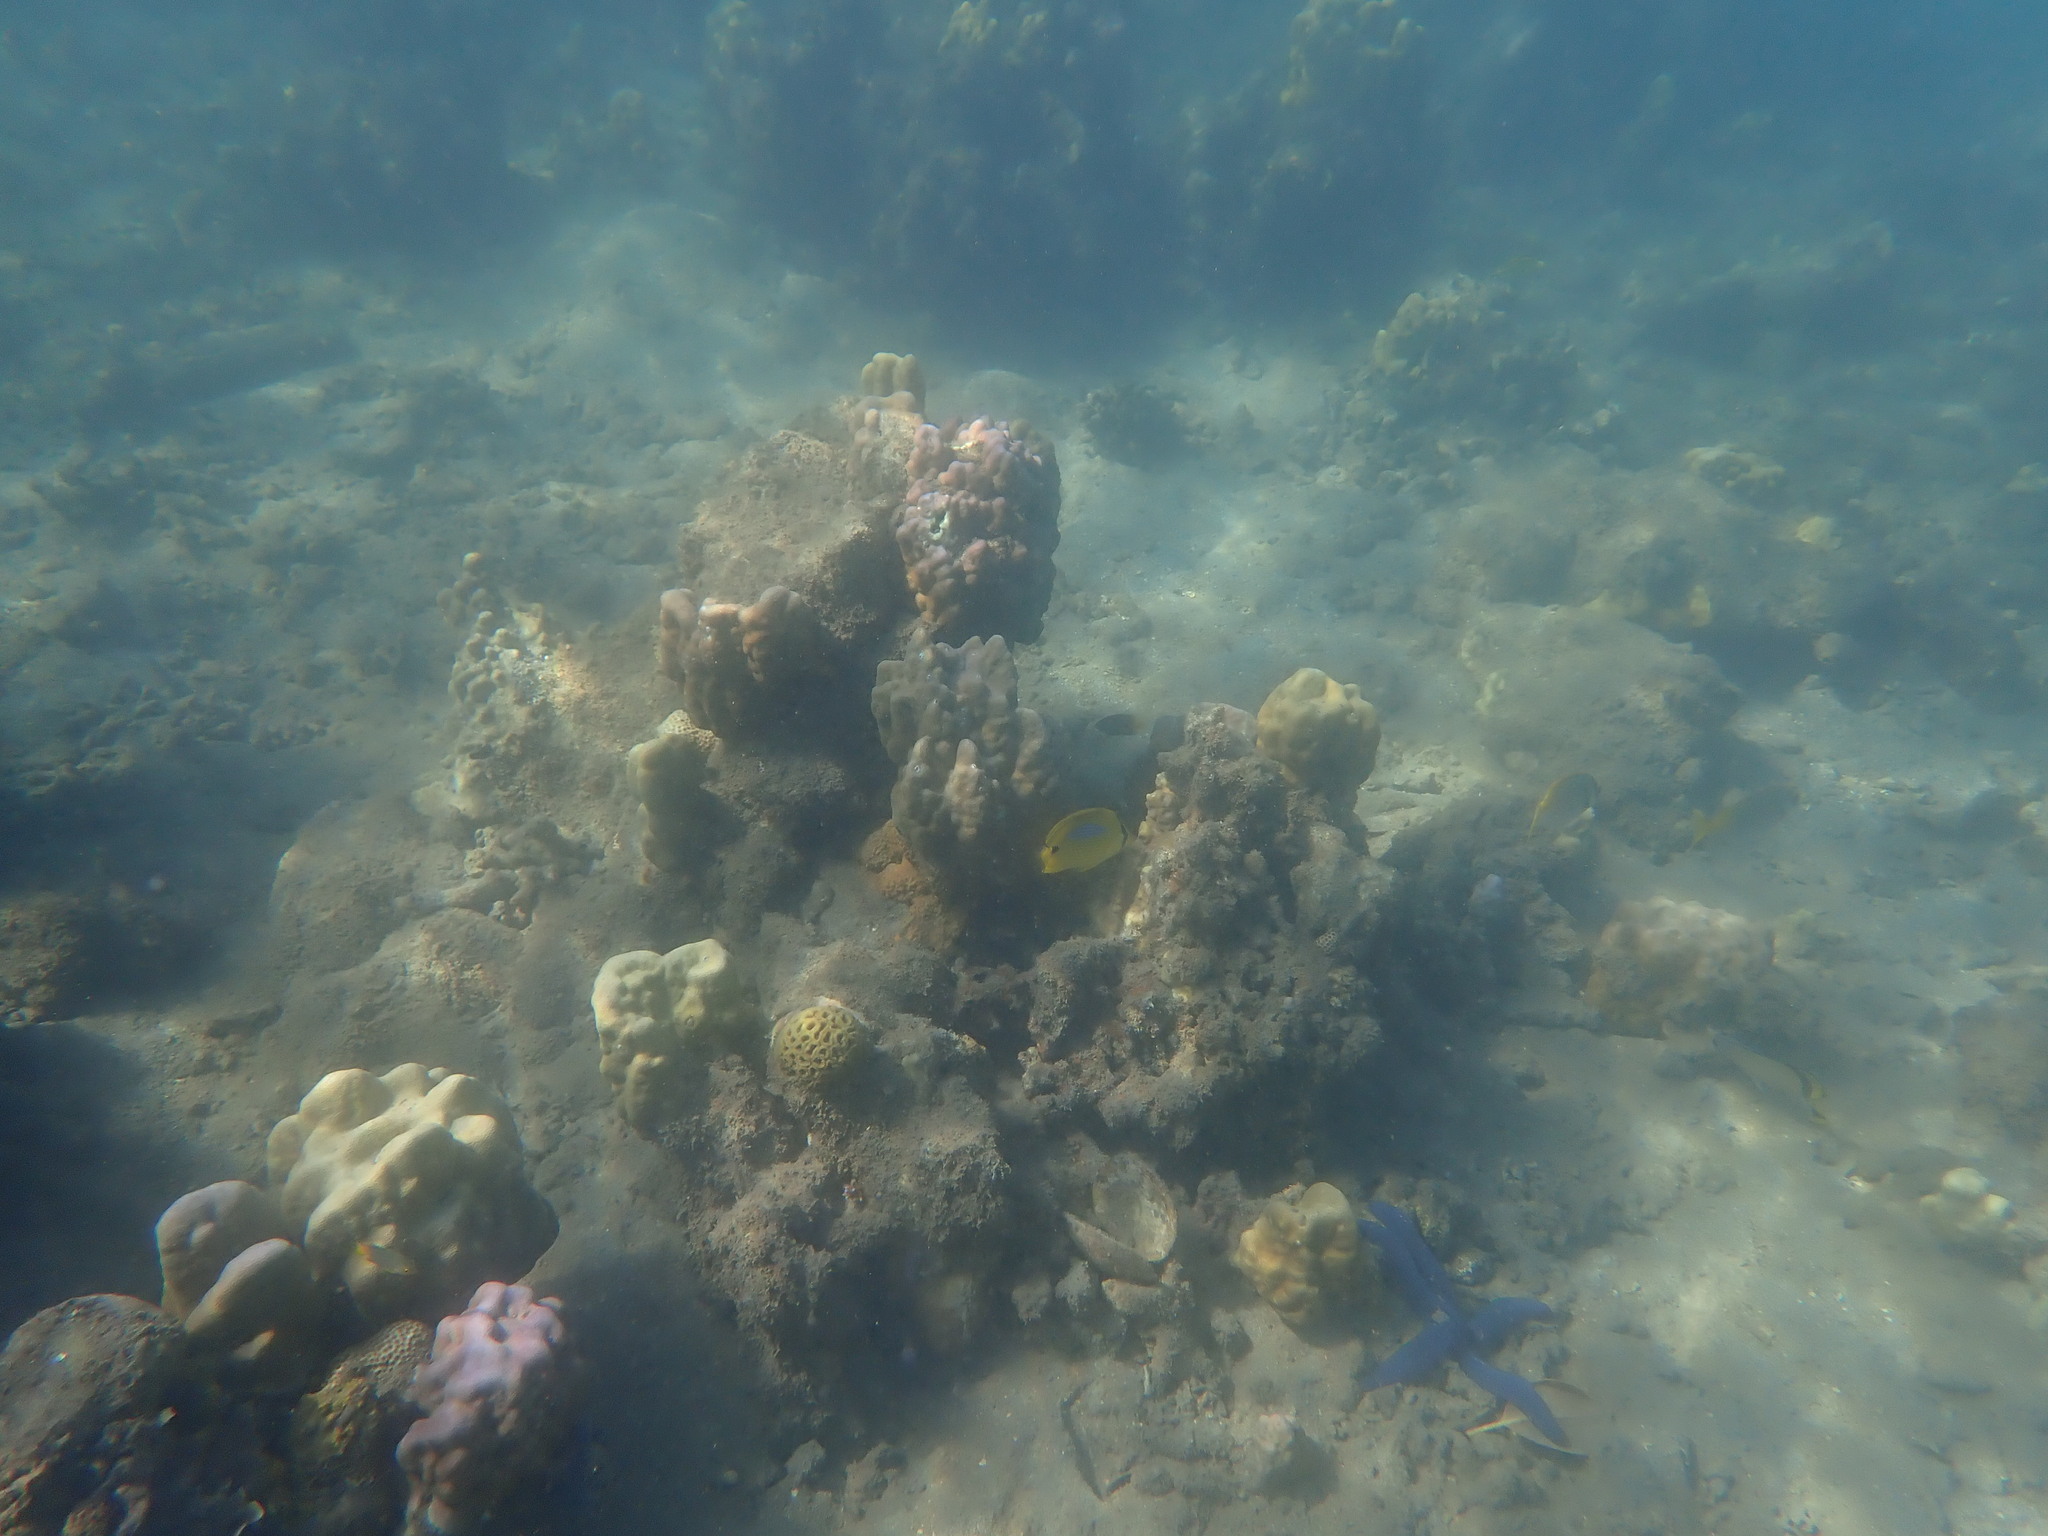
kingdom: Animalia
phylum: Chordata
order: Perciformes
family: Chaetodontidae
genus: Chaetodon
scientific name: Chaetodon plebeius
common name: Bluespot butterflyfish
